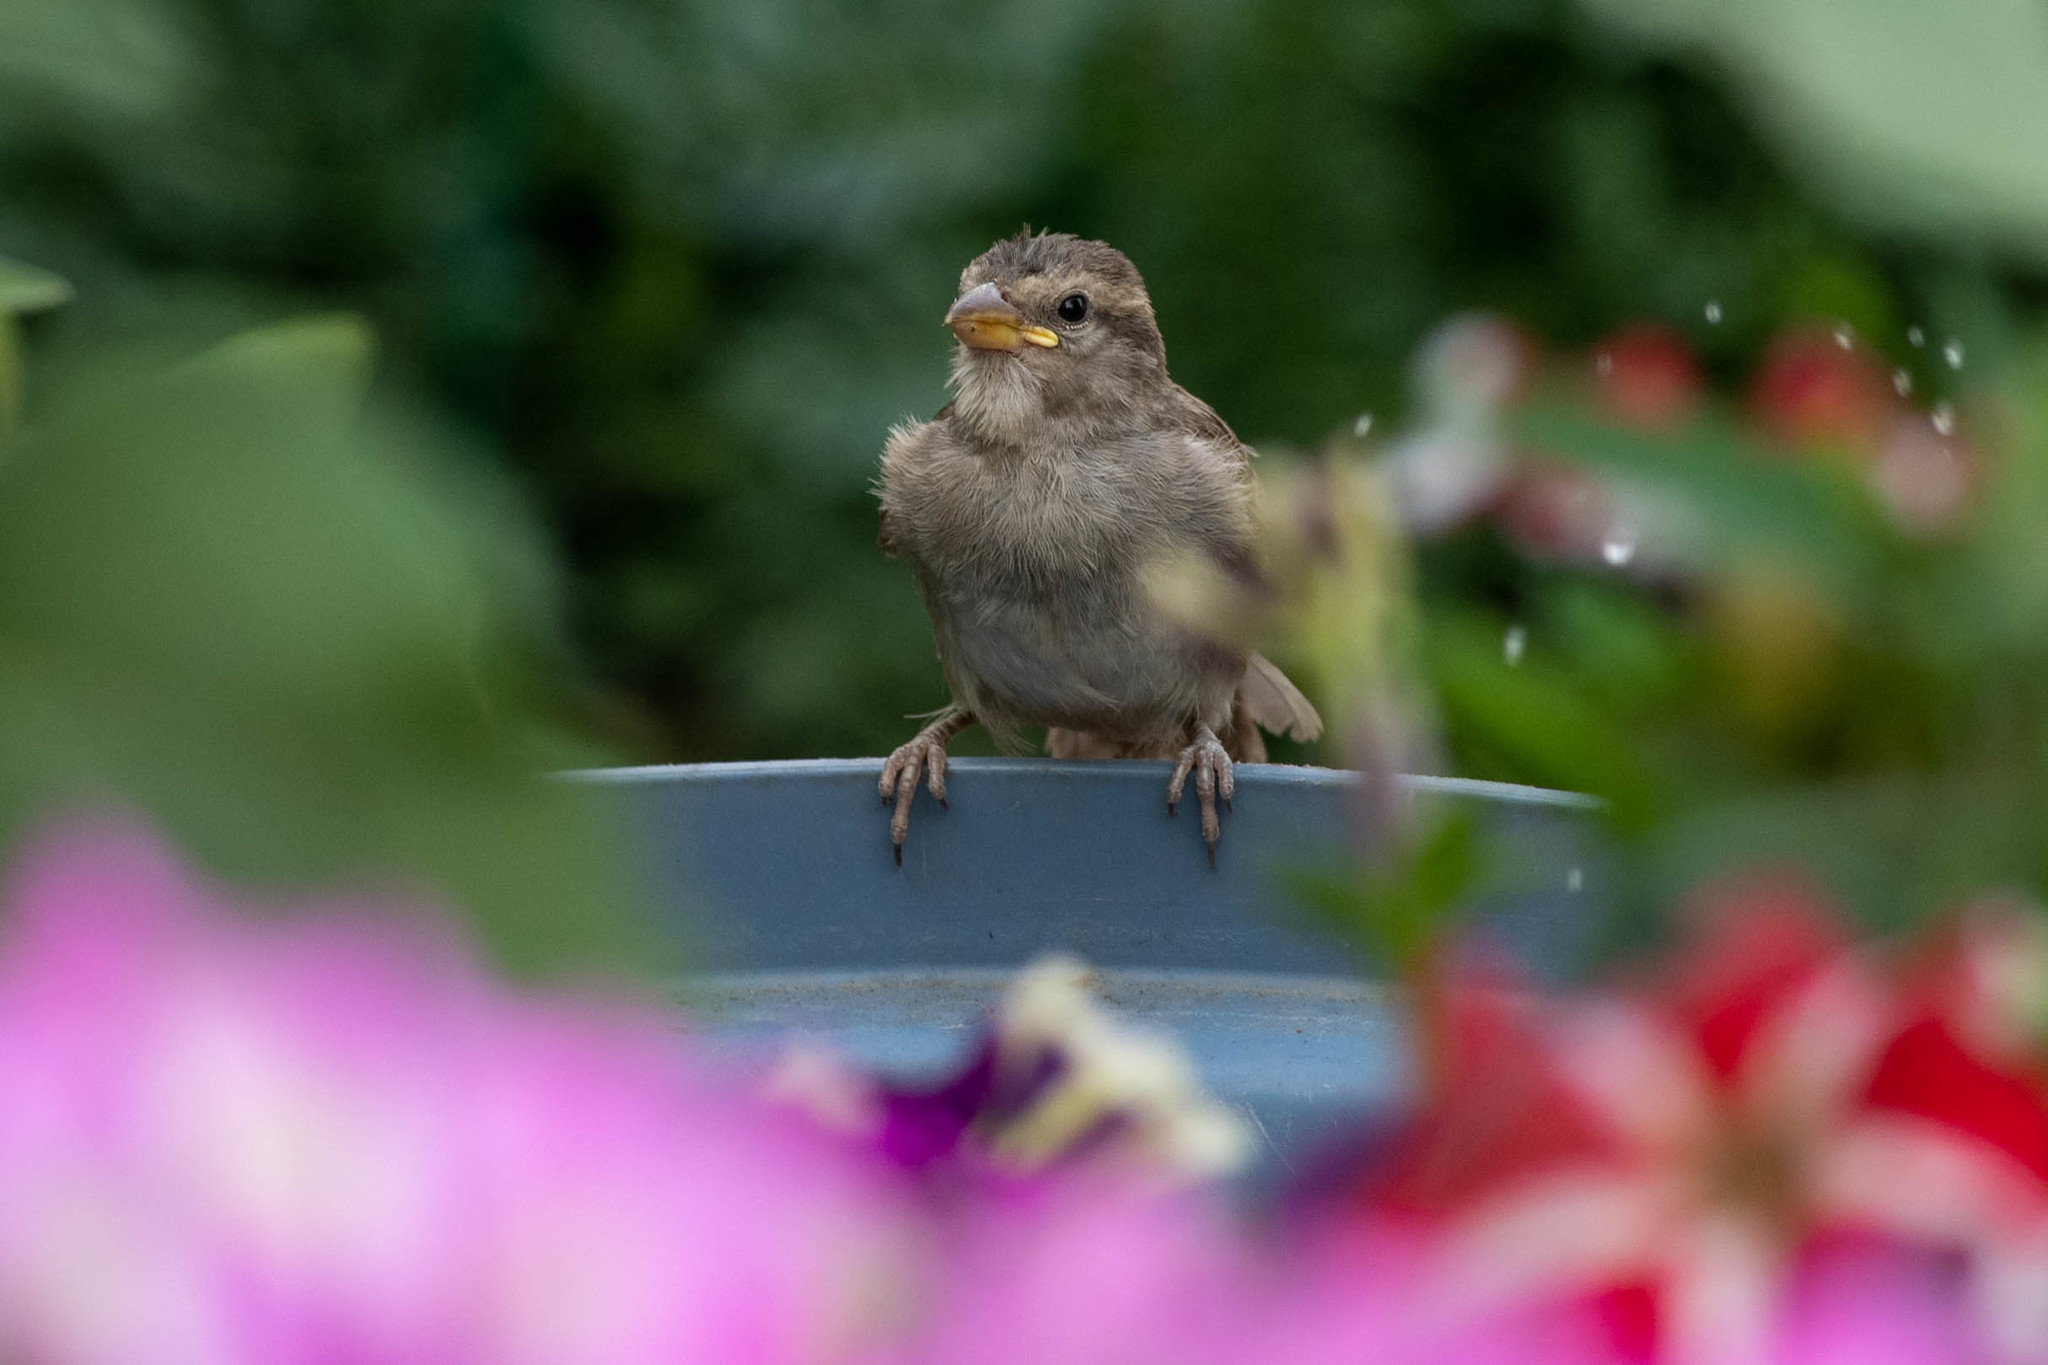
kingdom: Animalia
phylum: Chordata
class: Aves
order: Passeriformes
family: Passeridae
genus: Passer
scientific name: Passer domesticus
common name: House sparrow
